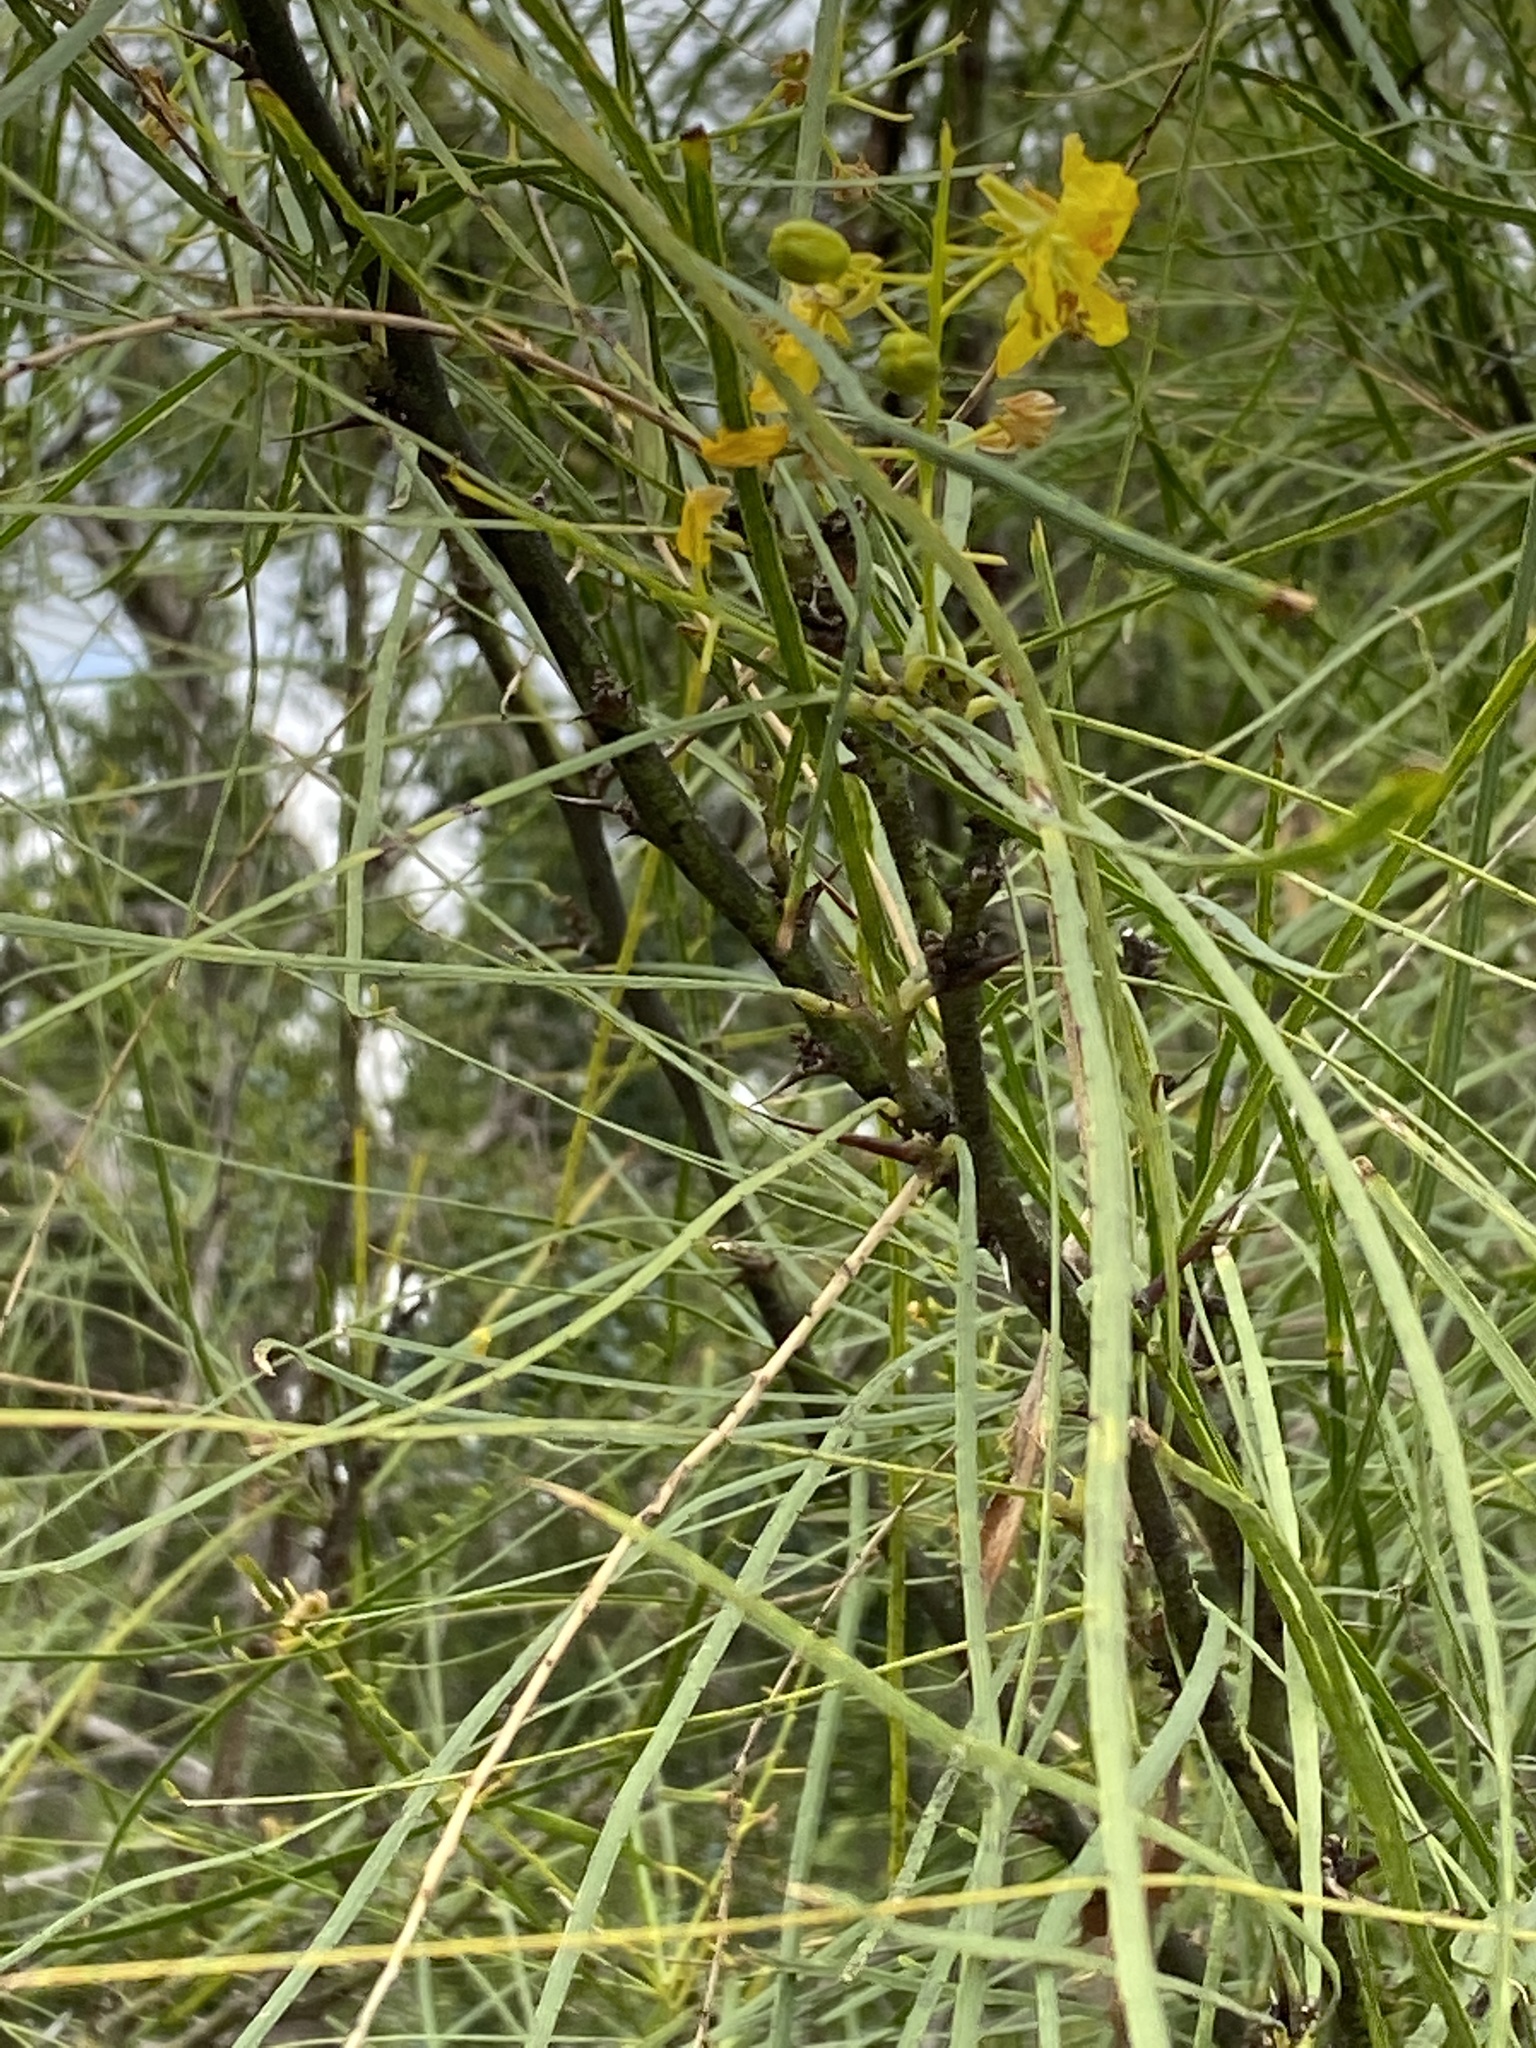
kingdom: Plantae
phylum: Tracheophyta
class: Magnoliopsida
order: Fabales
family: Fabaceae
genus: Parkinsonia
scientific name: Parkinsonia aculeata
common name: Jerusalem thorn
